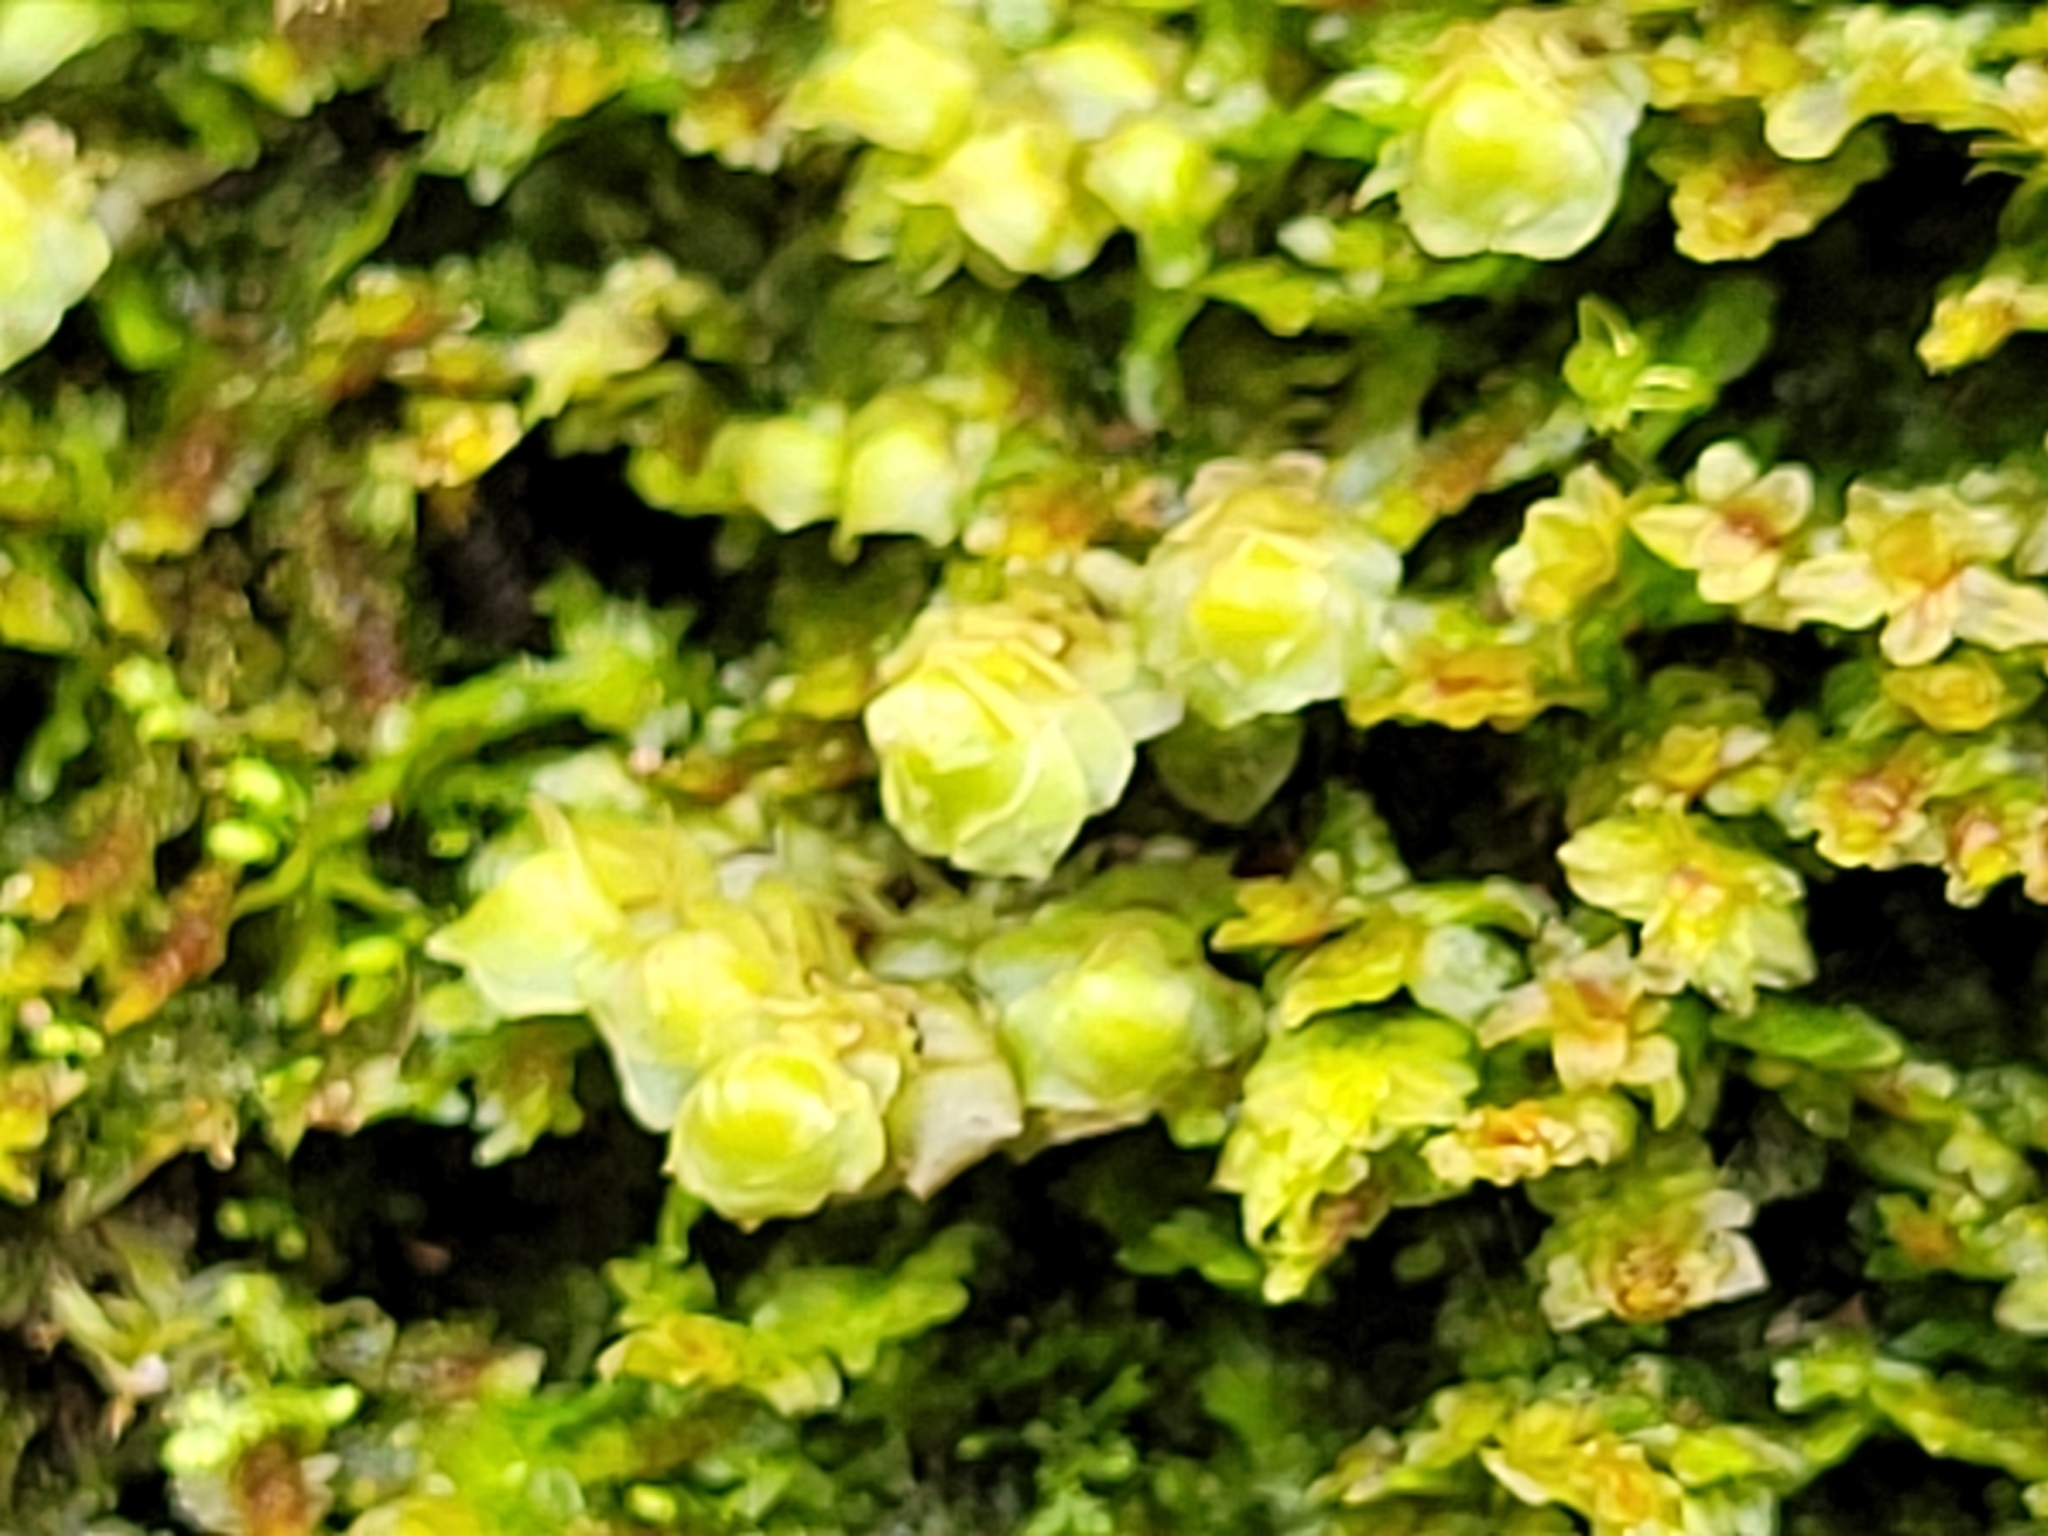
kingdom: Plantae
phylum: Marchantiophyta
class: Jungermanniopsida
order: Jungermanniales
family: Scapaniaceae
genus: Scapania
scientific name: Scapania nemorea
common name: Grove earwort
